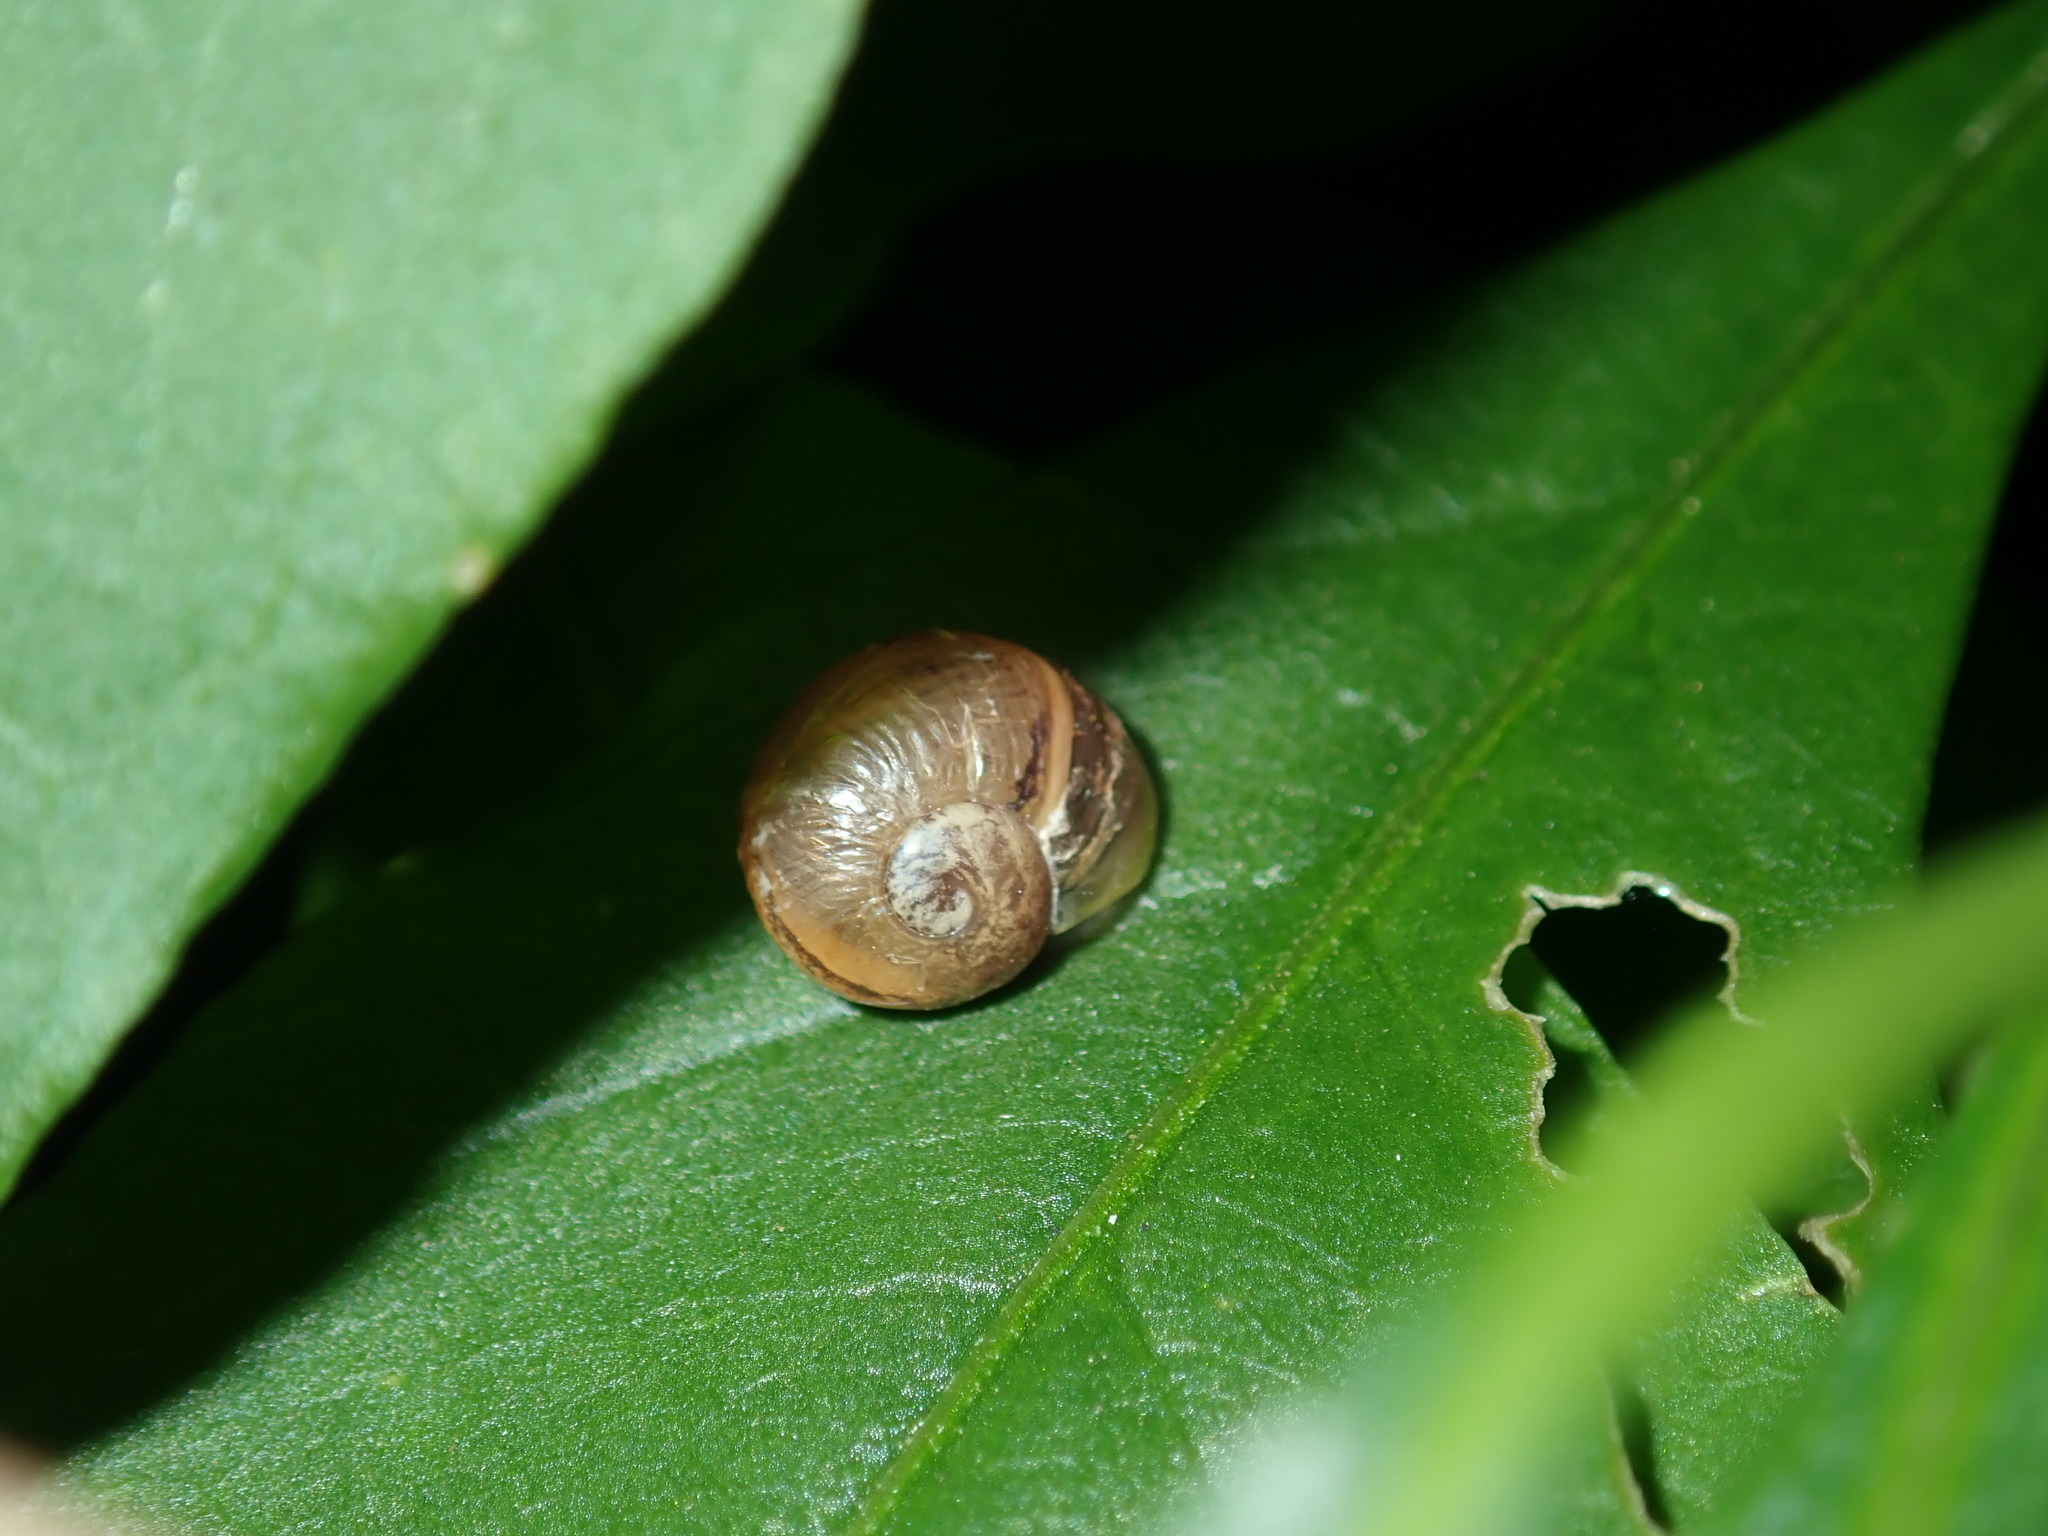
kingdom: Animalia
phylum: Mollusca
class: Gastropoda
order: Stylommatophora
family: Helicidae
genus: Cornu
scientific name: Cornu aspersum
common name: Brown garden snail
